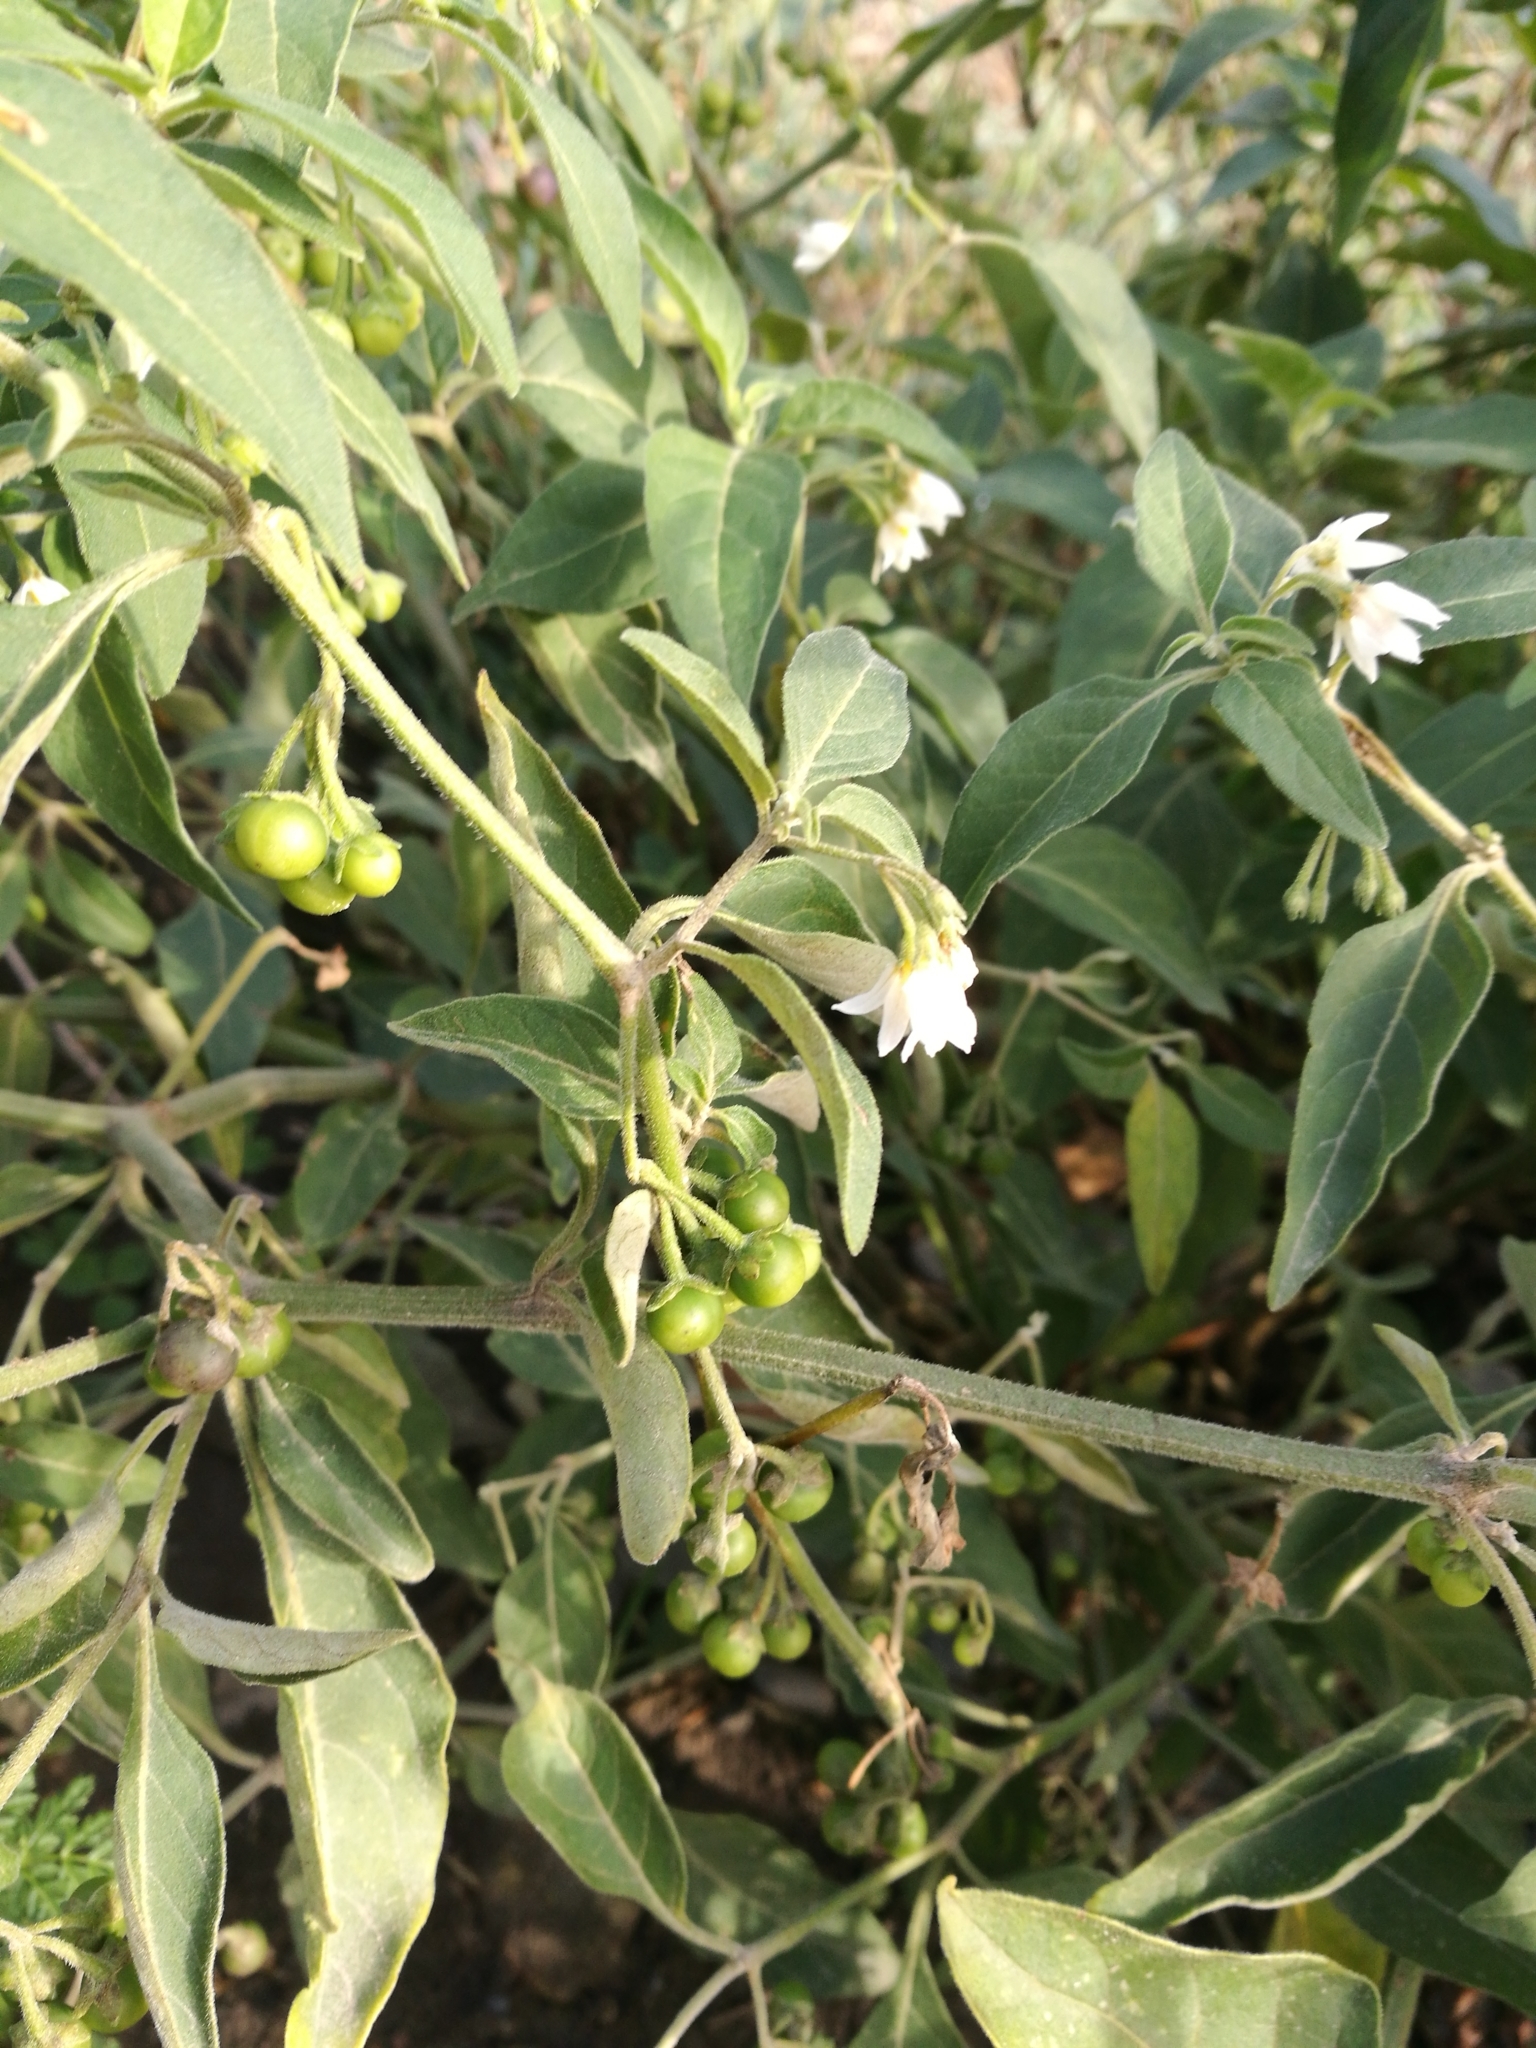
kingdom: Plantae
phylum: Tracheophyta
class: Magnoliopsida
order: Solanales
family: Solanaceae
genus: Solanum
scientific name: Solanum chenopodioides
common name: Tall nightshade
